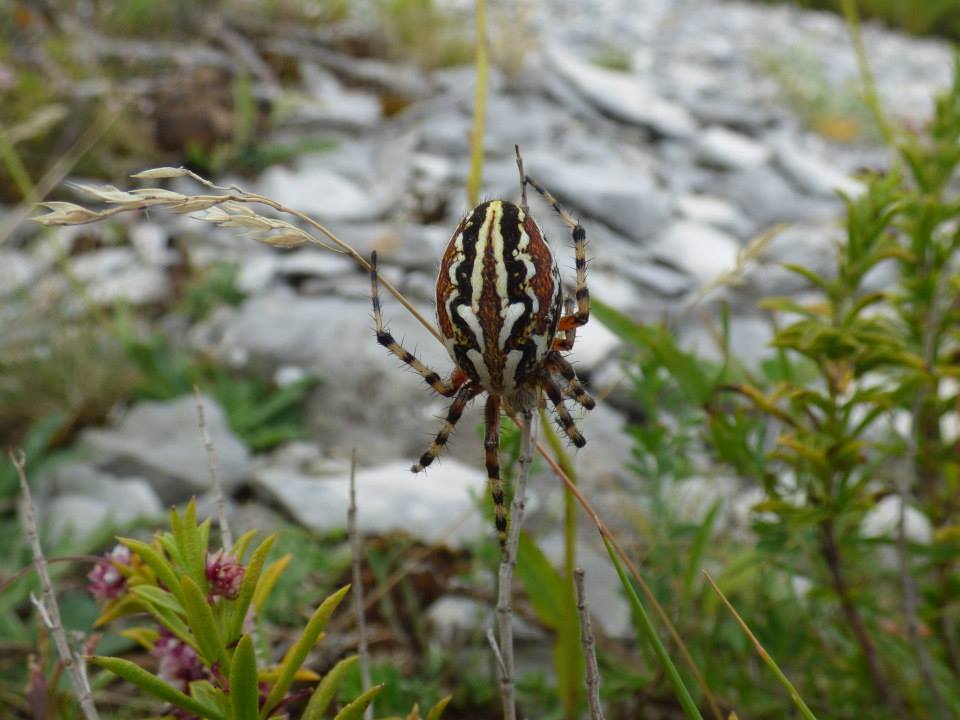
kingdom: Animalia
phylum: Arthropoda
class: Arachnida
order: Araneae
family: Araneidae
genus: Aculepeira
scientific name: Aculepeira armida
